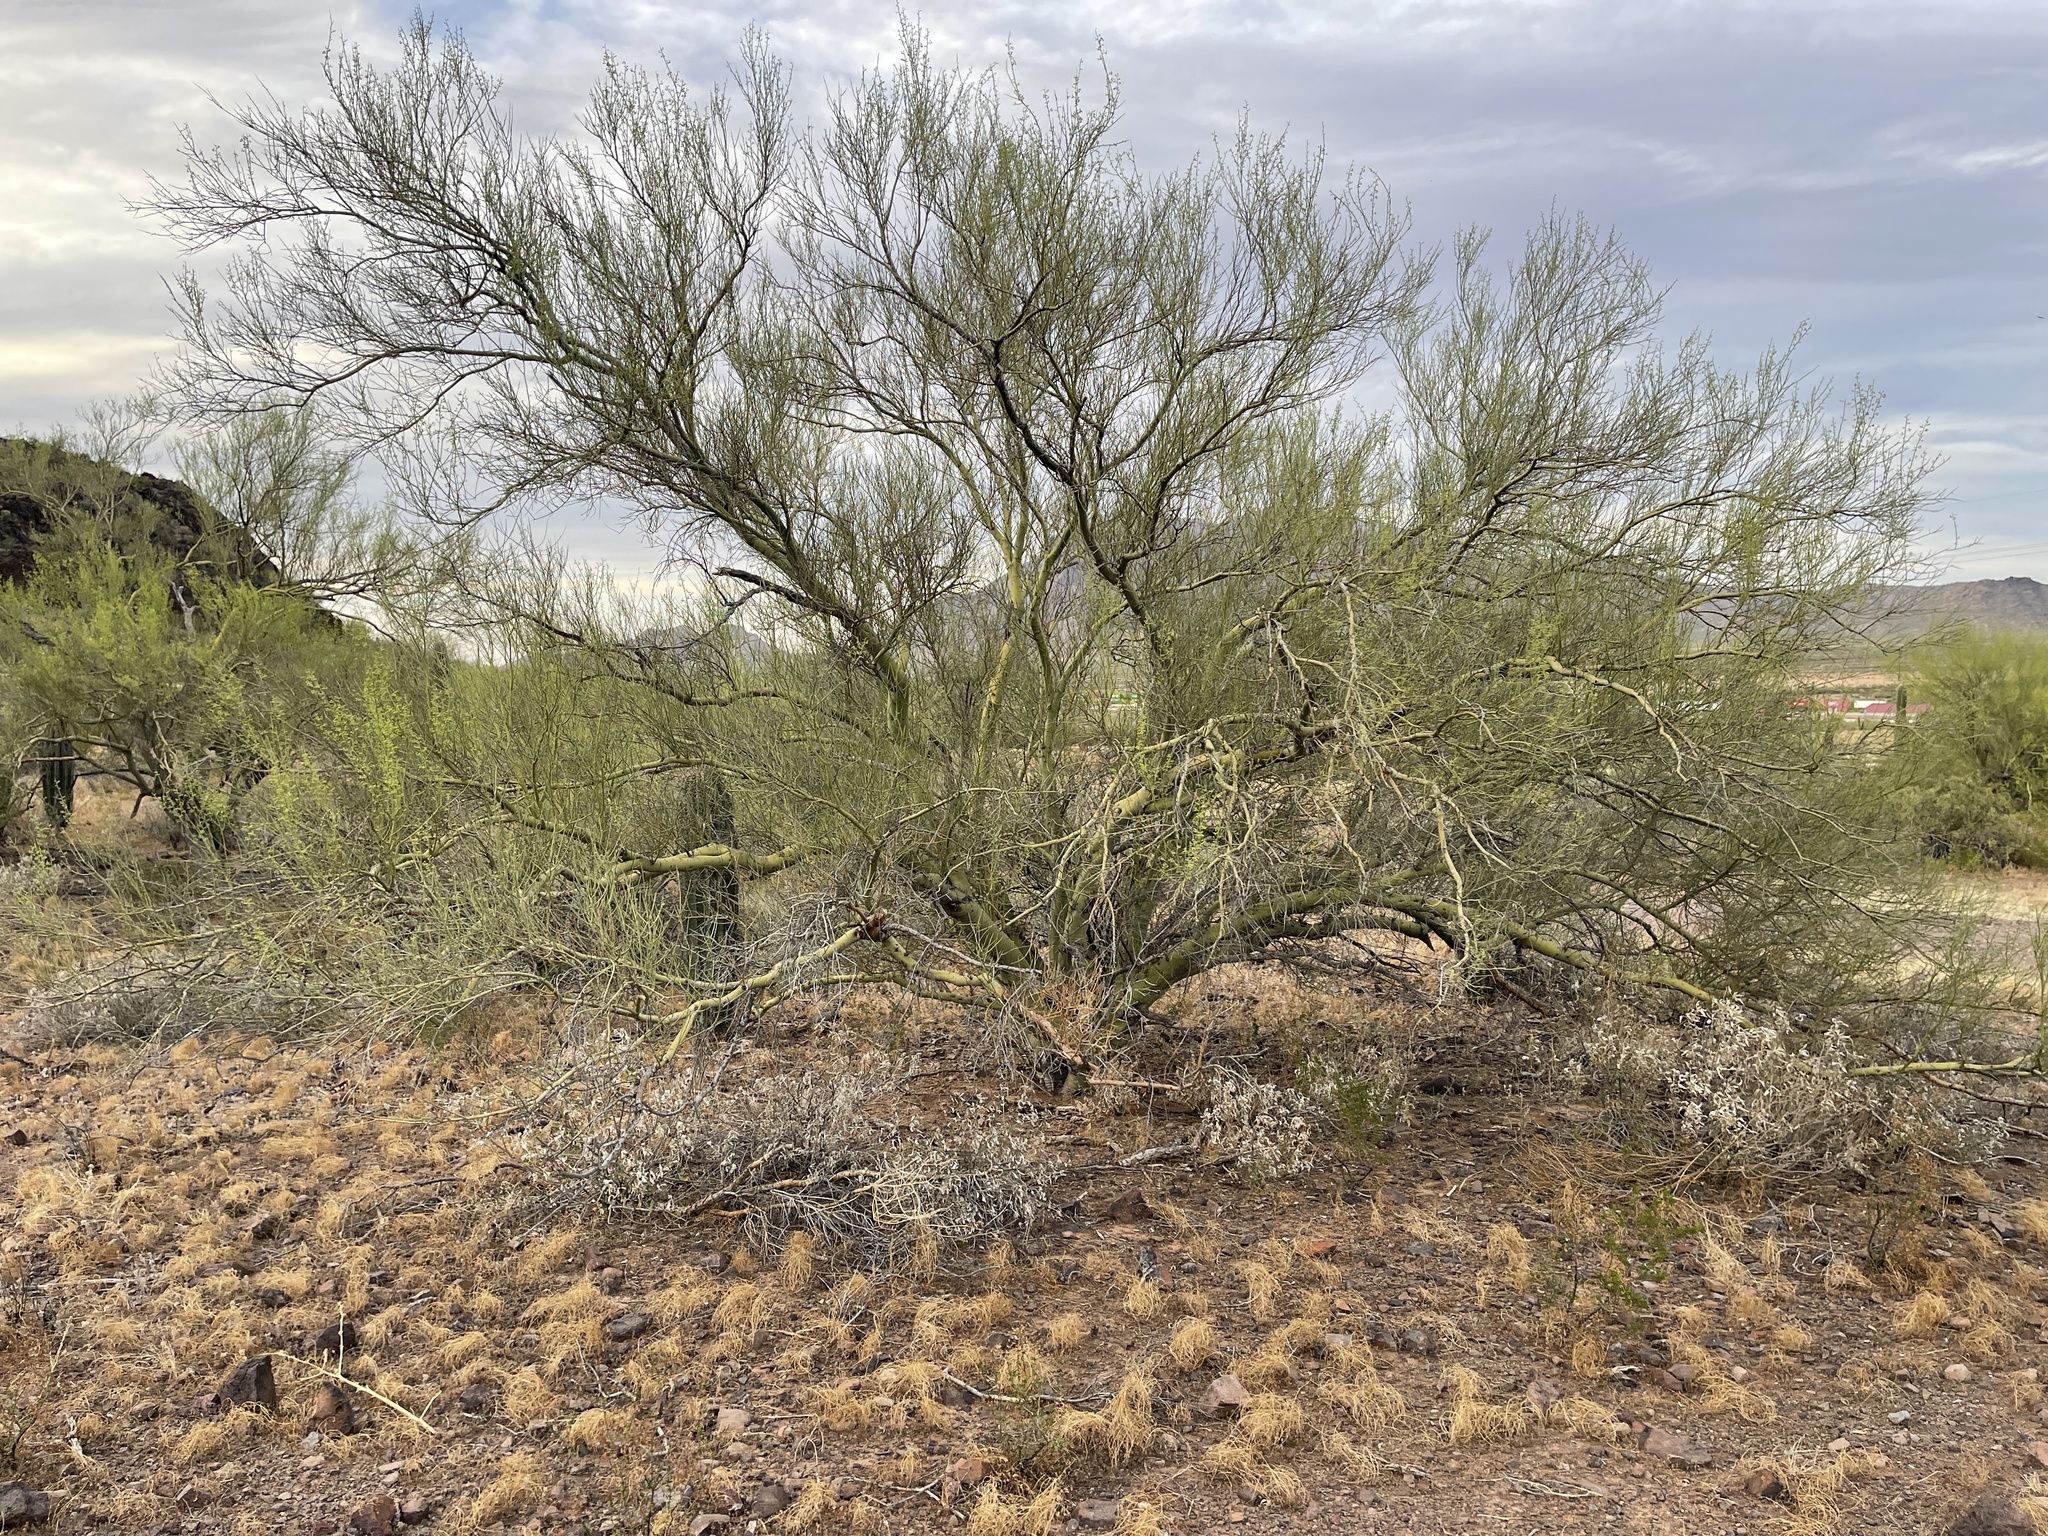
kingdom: Plantae
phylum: Tracheophyta
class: Magnoliopsida
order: Fabales
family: Fabaceae
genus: Parkinsonia
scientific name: Parkinsonia microphylla
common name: Yellow paloverde
